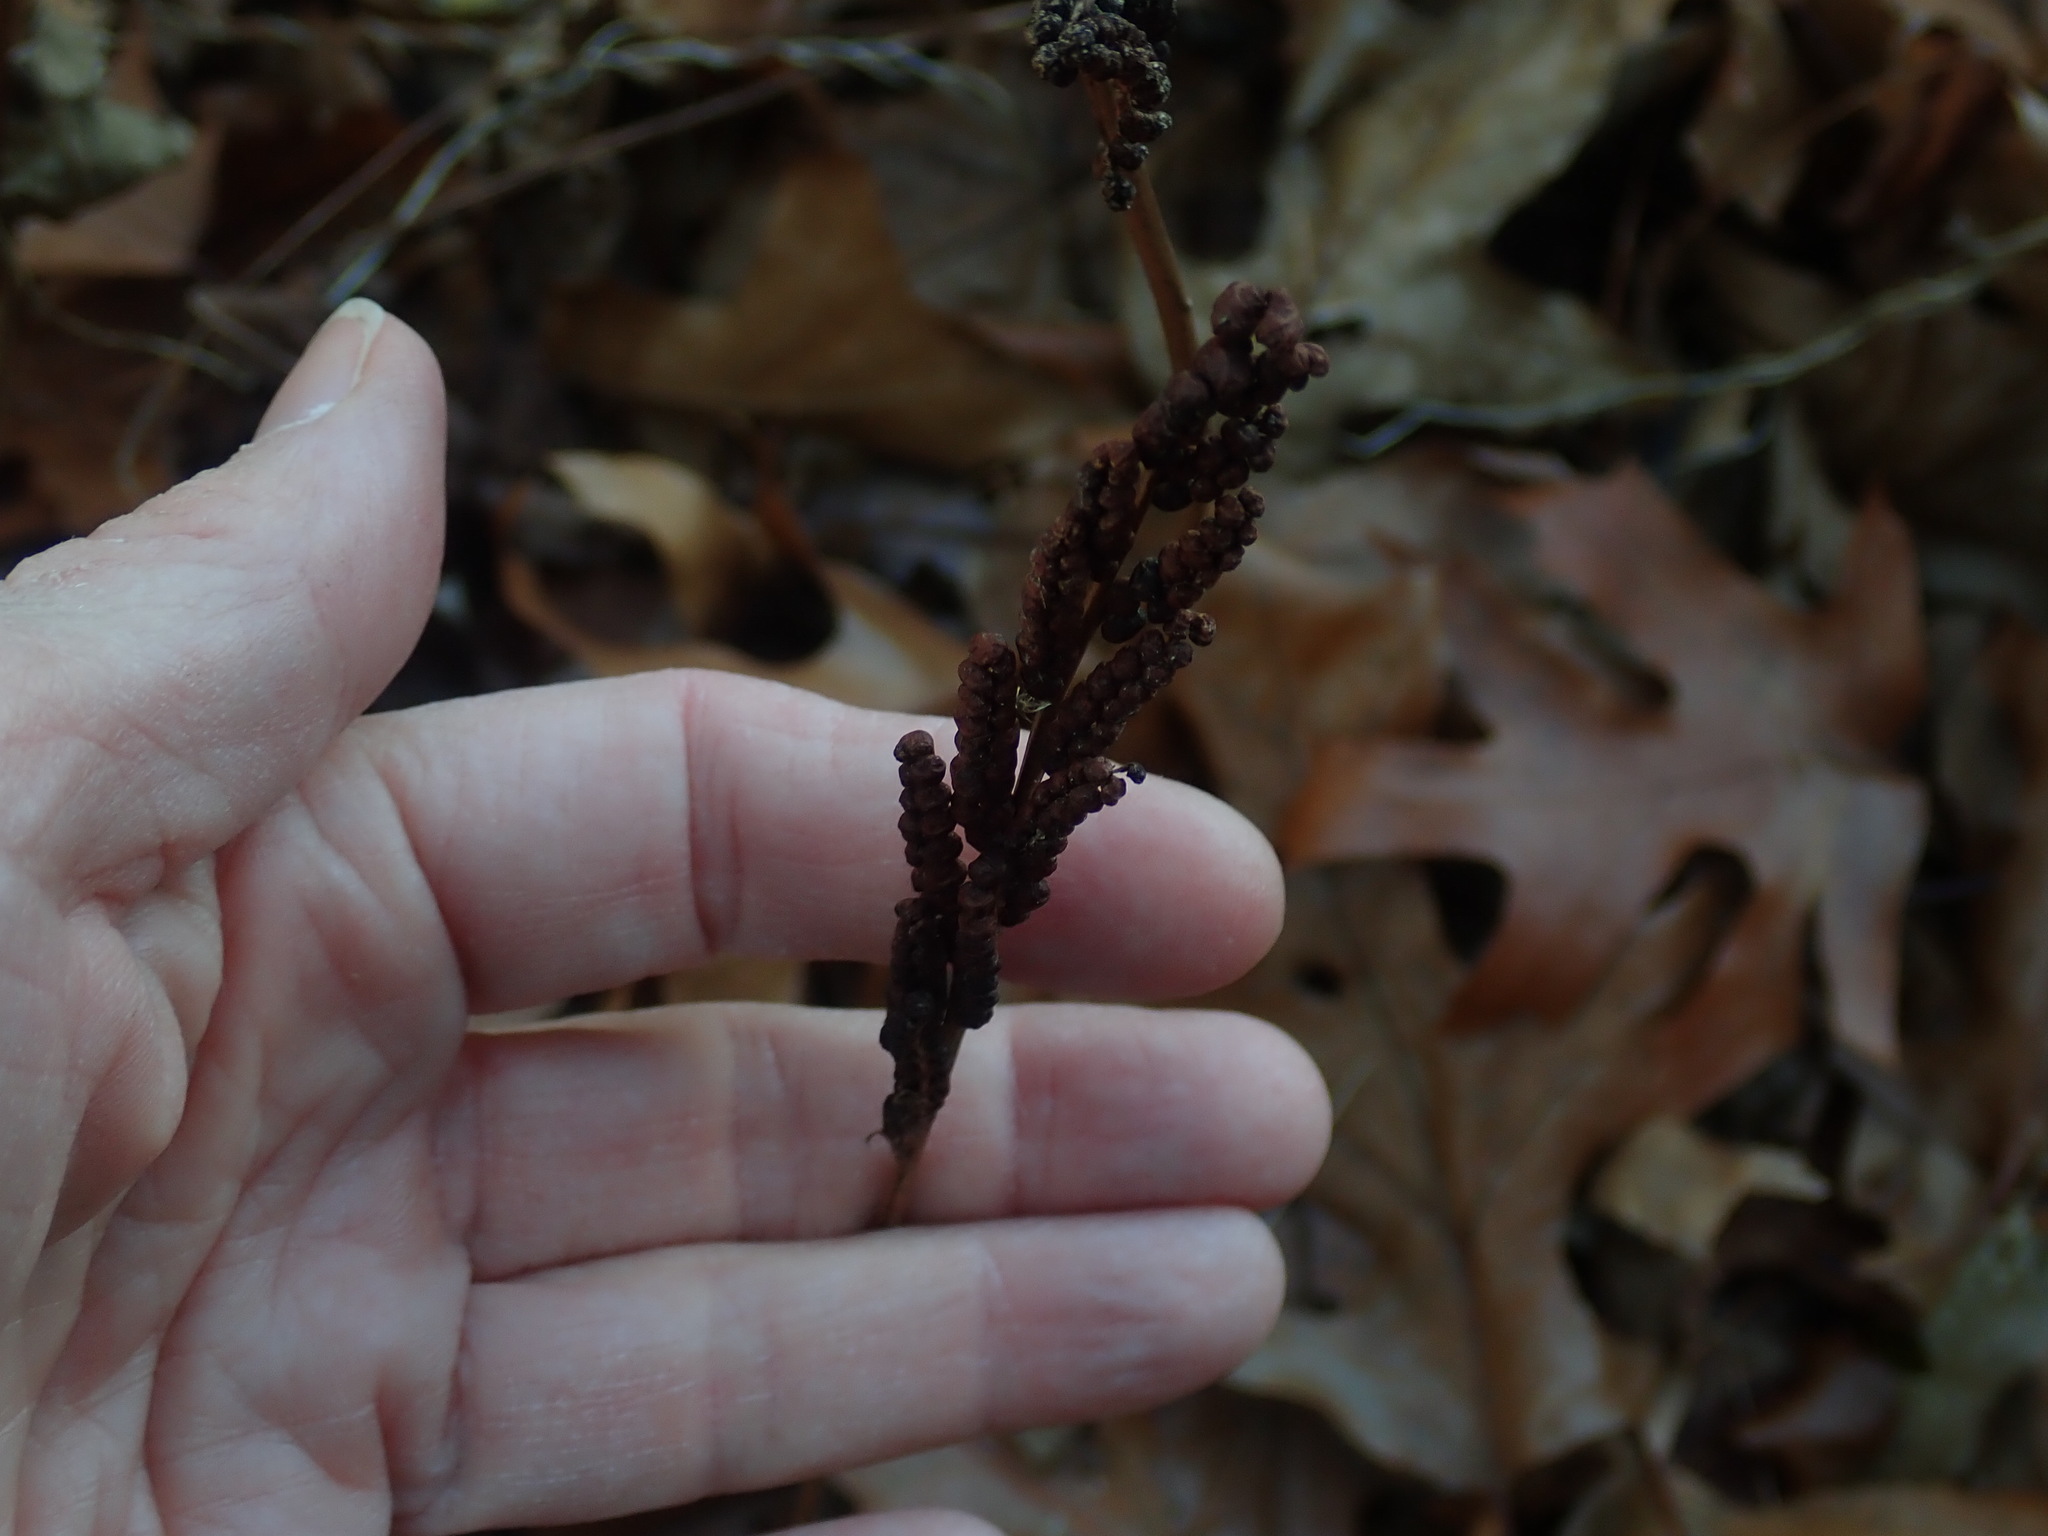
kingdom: Plantae
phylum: Tracheophyta
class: Polypodiopsida
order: Polypodiales
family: Onocleaceae
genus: Onoclea
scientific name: Onoclea sensibilis
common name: Sensitive fern
